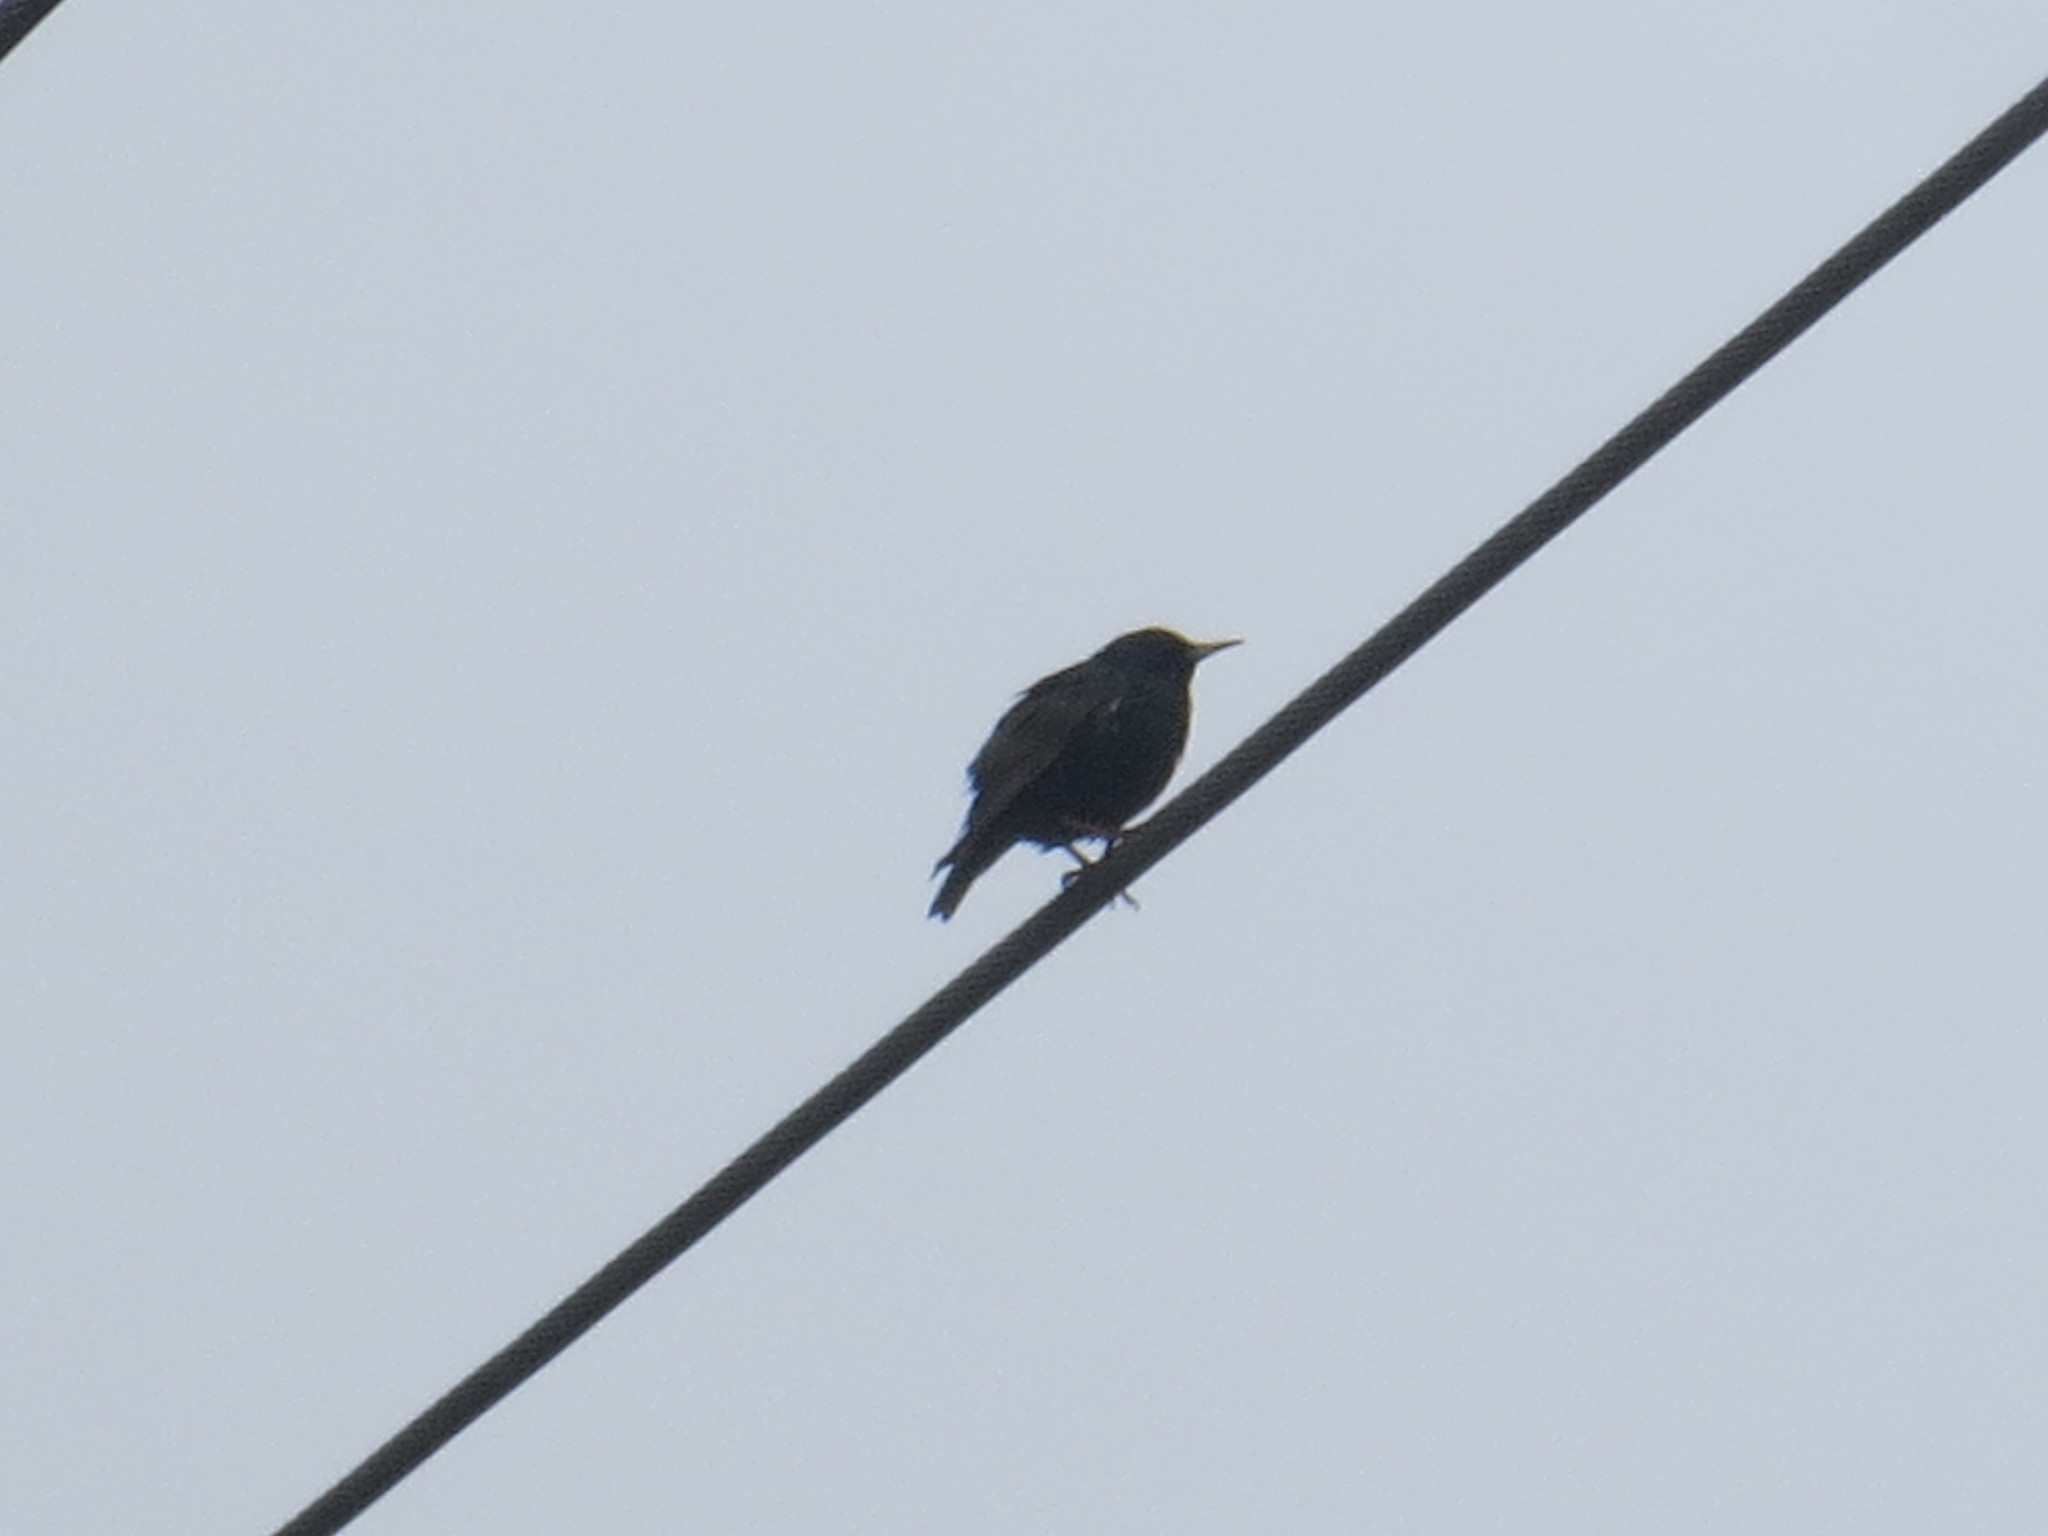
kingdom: Animalia
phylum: Chordata
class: Aves
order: Passeriformes
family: Sturnidae
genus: Sturnus
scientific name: Sturnus vulgaris
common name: Common starling
